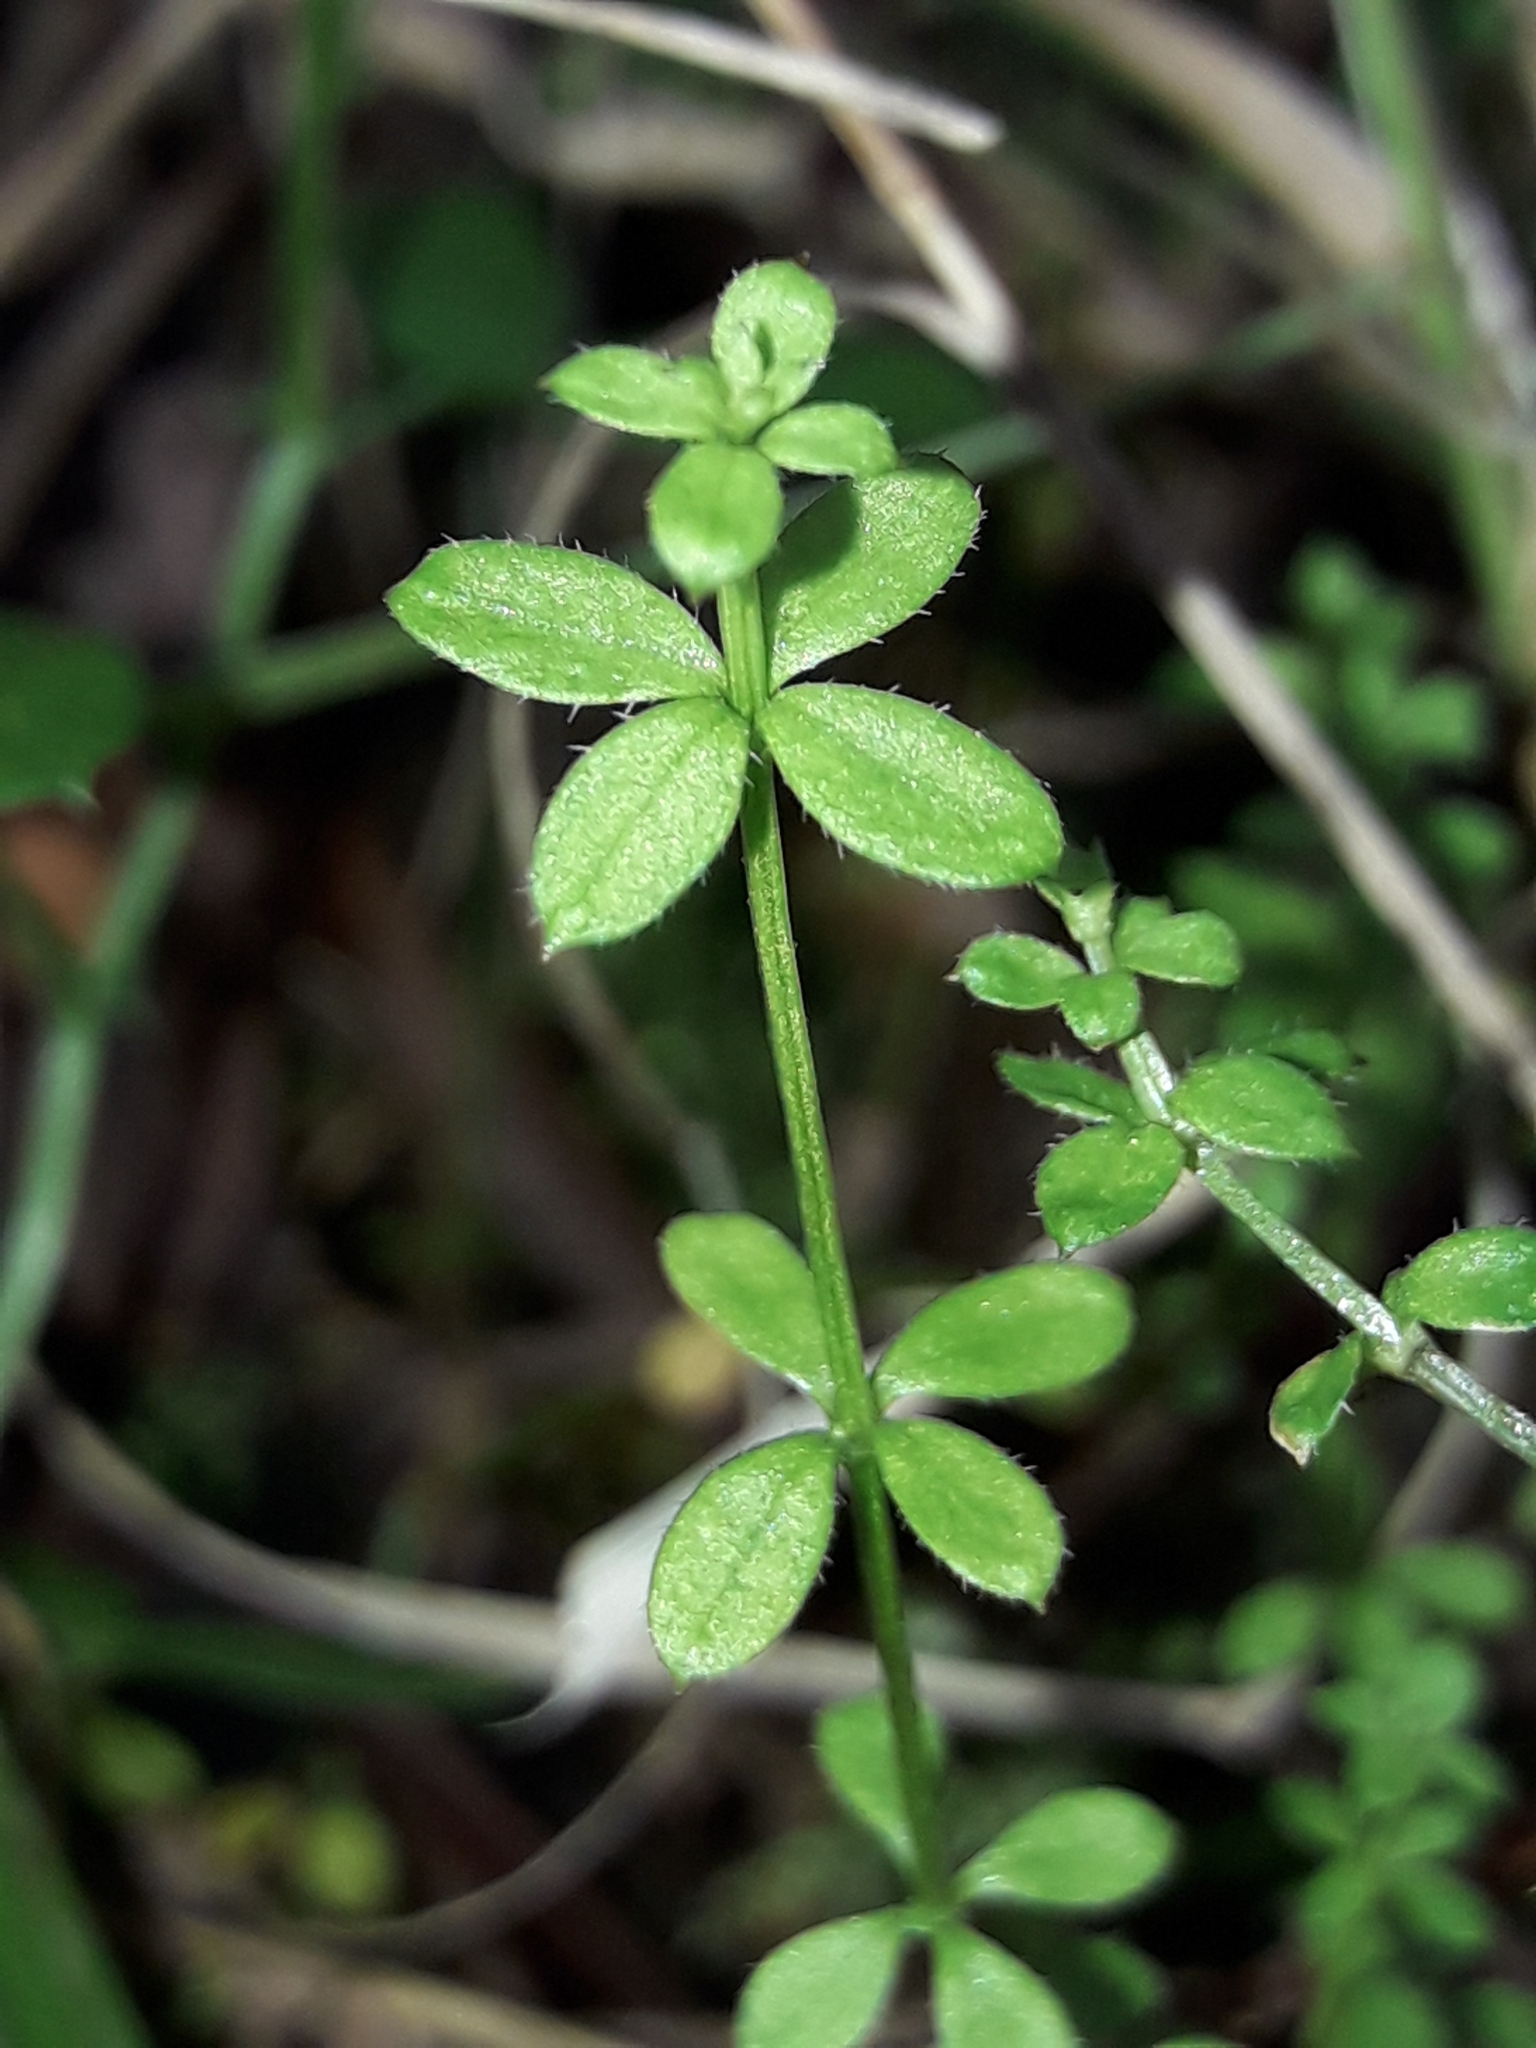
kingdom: Plantae
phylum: Tracheophyta
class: Magnoliopsida
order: Gentianales
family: Rubiaceae
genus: Galium
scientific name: Galium propinquum
